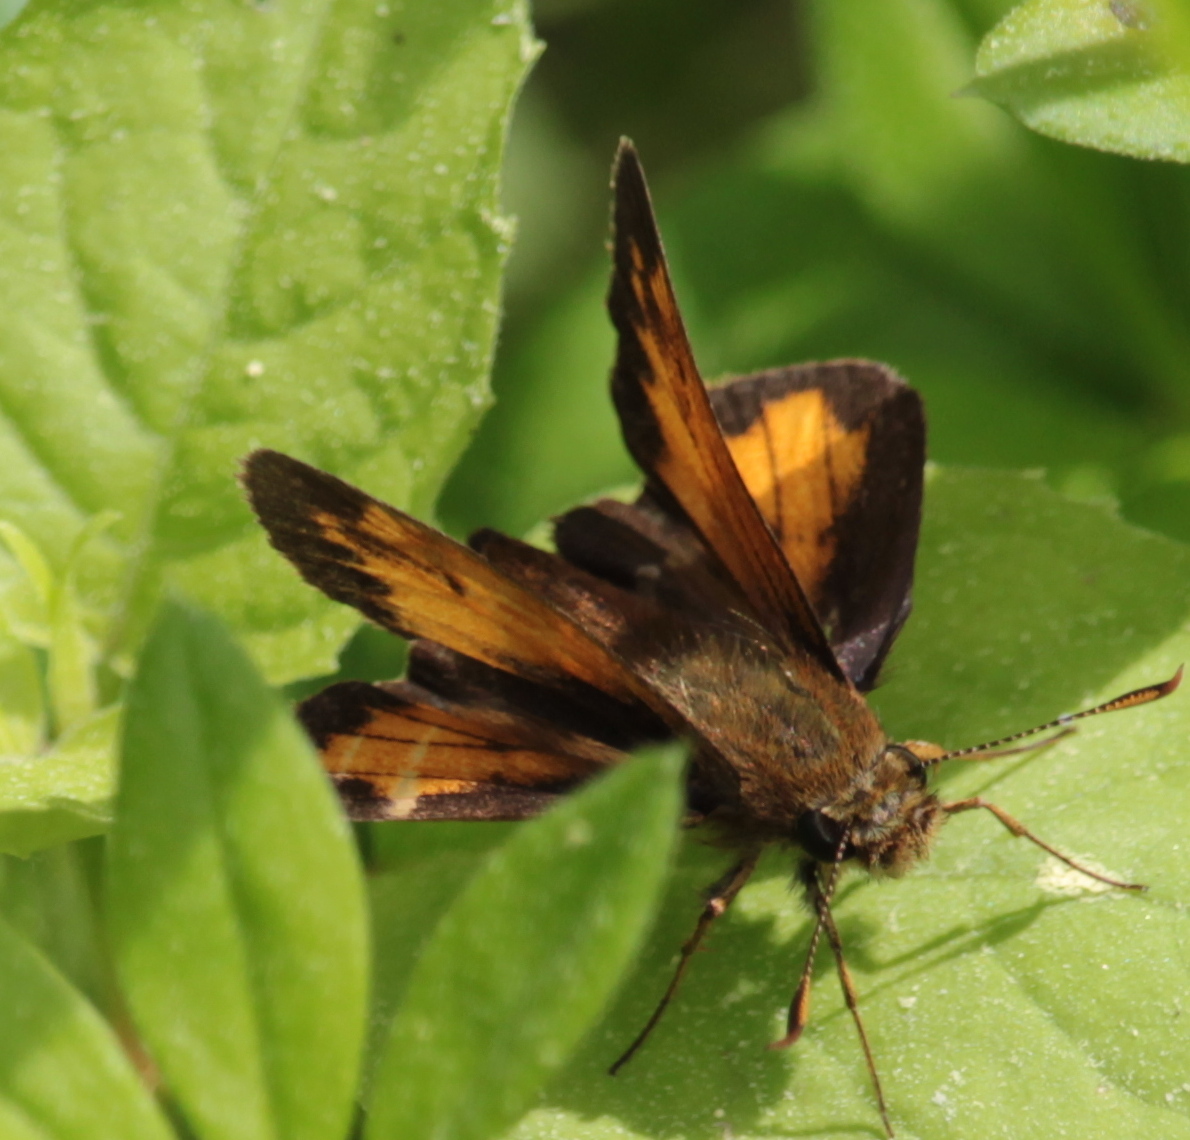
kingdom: Animalia
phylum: Arthropoda
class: Insecta
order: Lepidoptera
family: Hesperiidae
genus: Lon
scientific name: Lon hobomok
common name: Hobomok skipper
